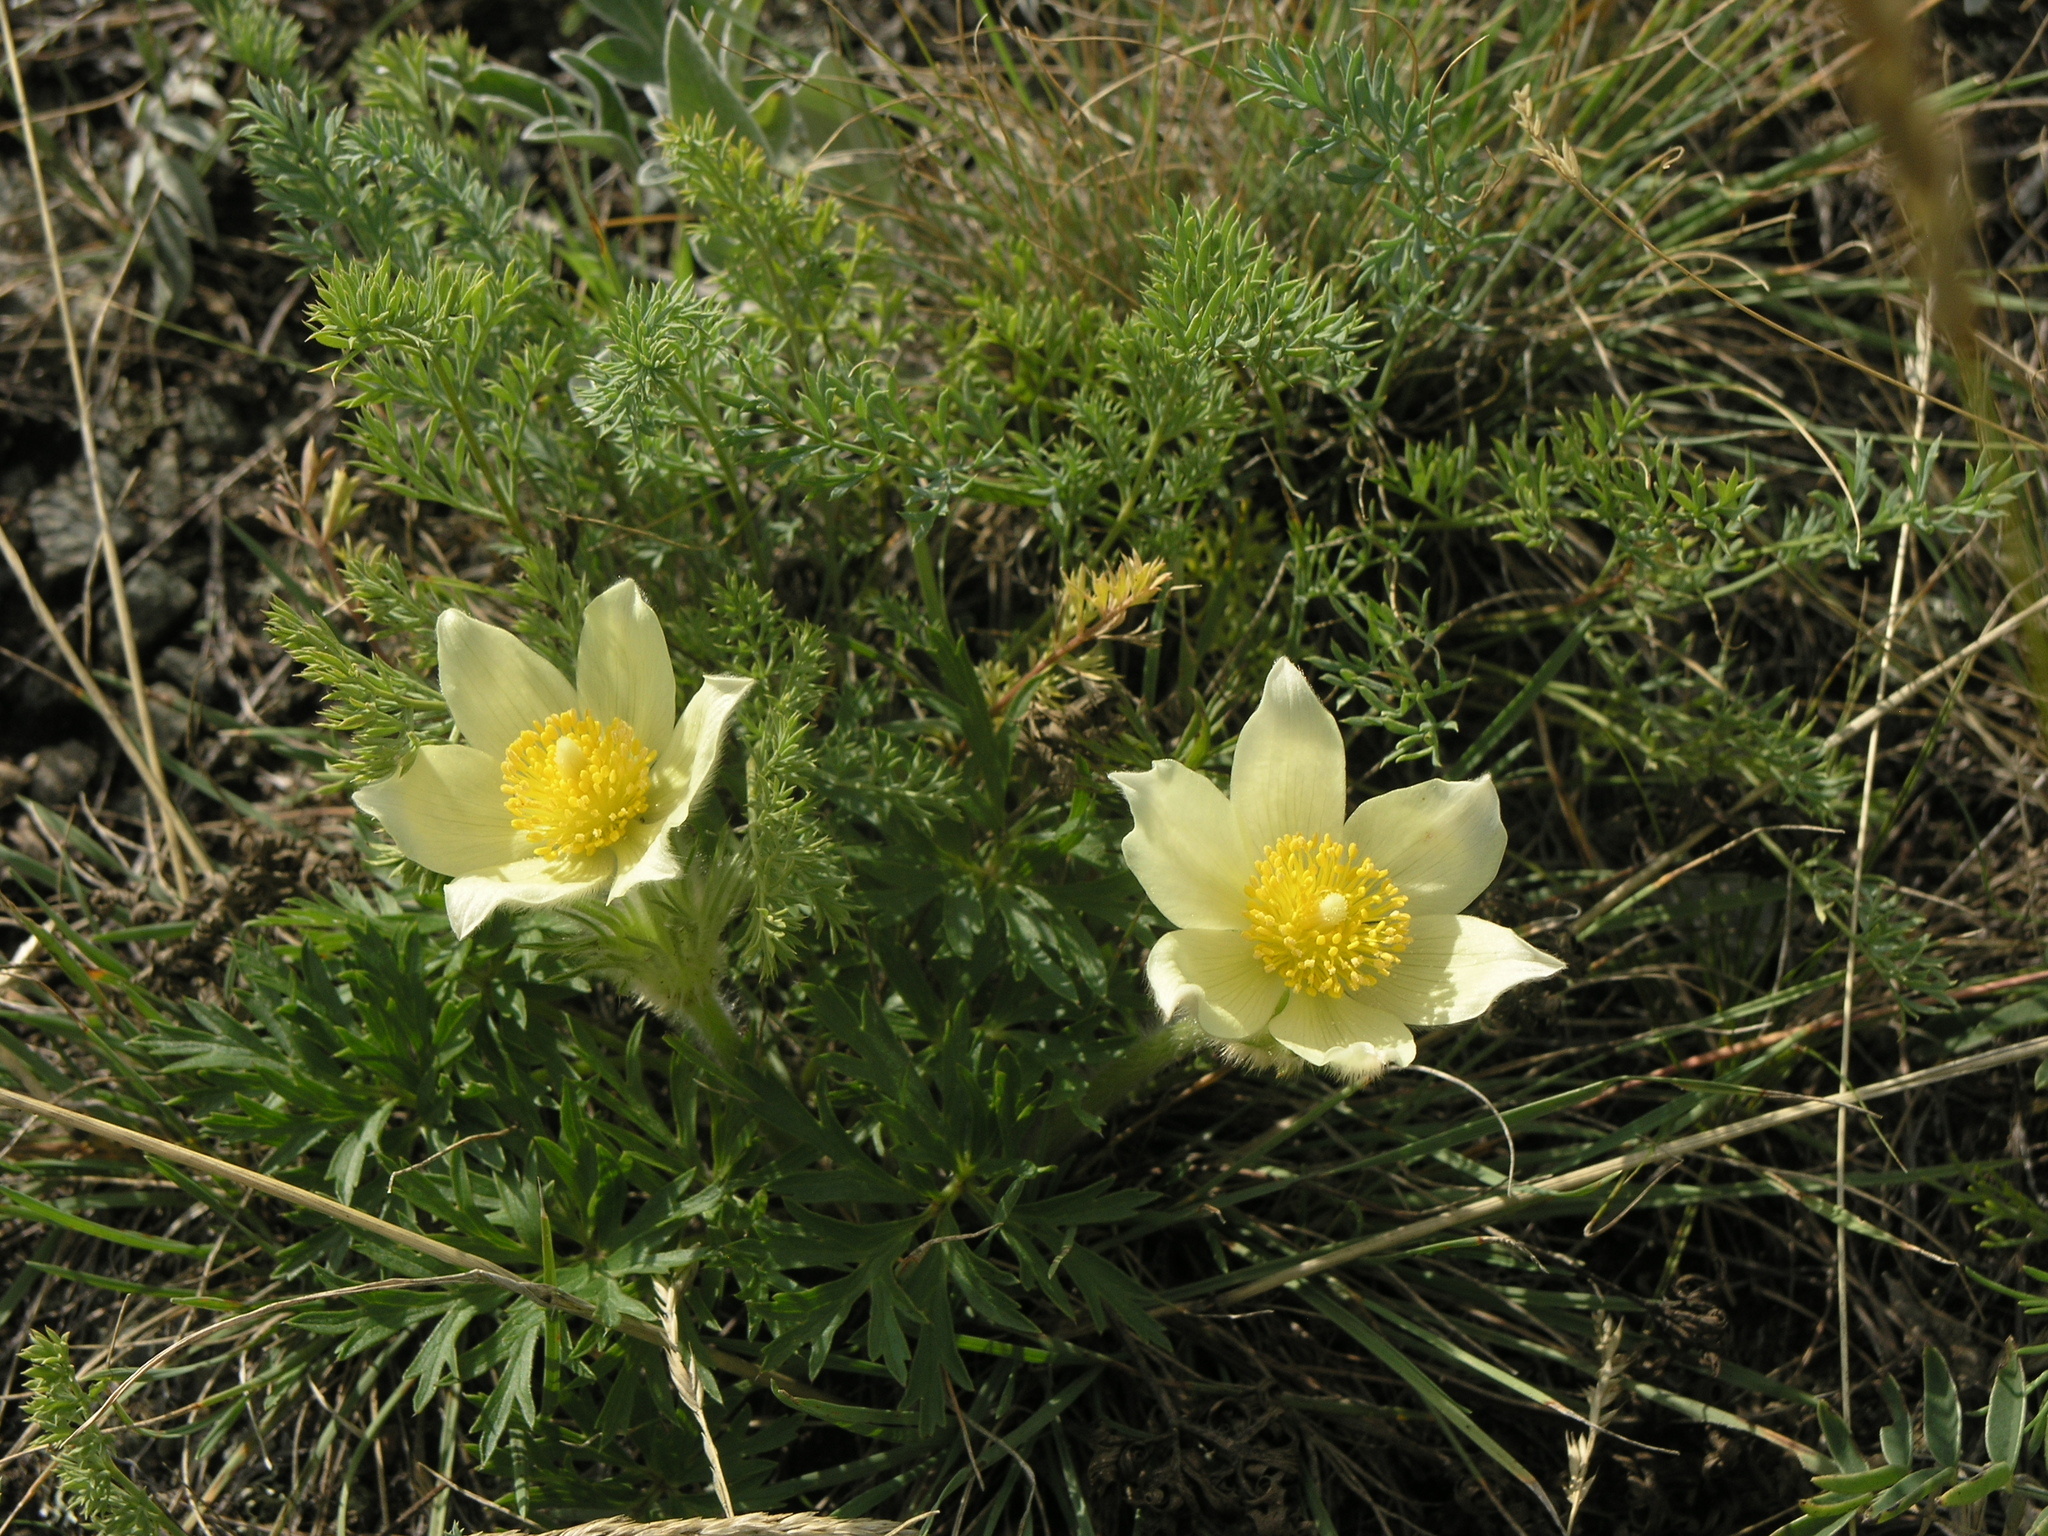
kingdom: Plantae
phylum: Tracheophyta
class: Magnoliopsida
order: Ranunculales
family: Ranunculaceae
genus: Pulsatilla
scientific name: Pulsatilla patens
